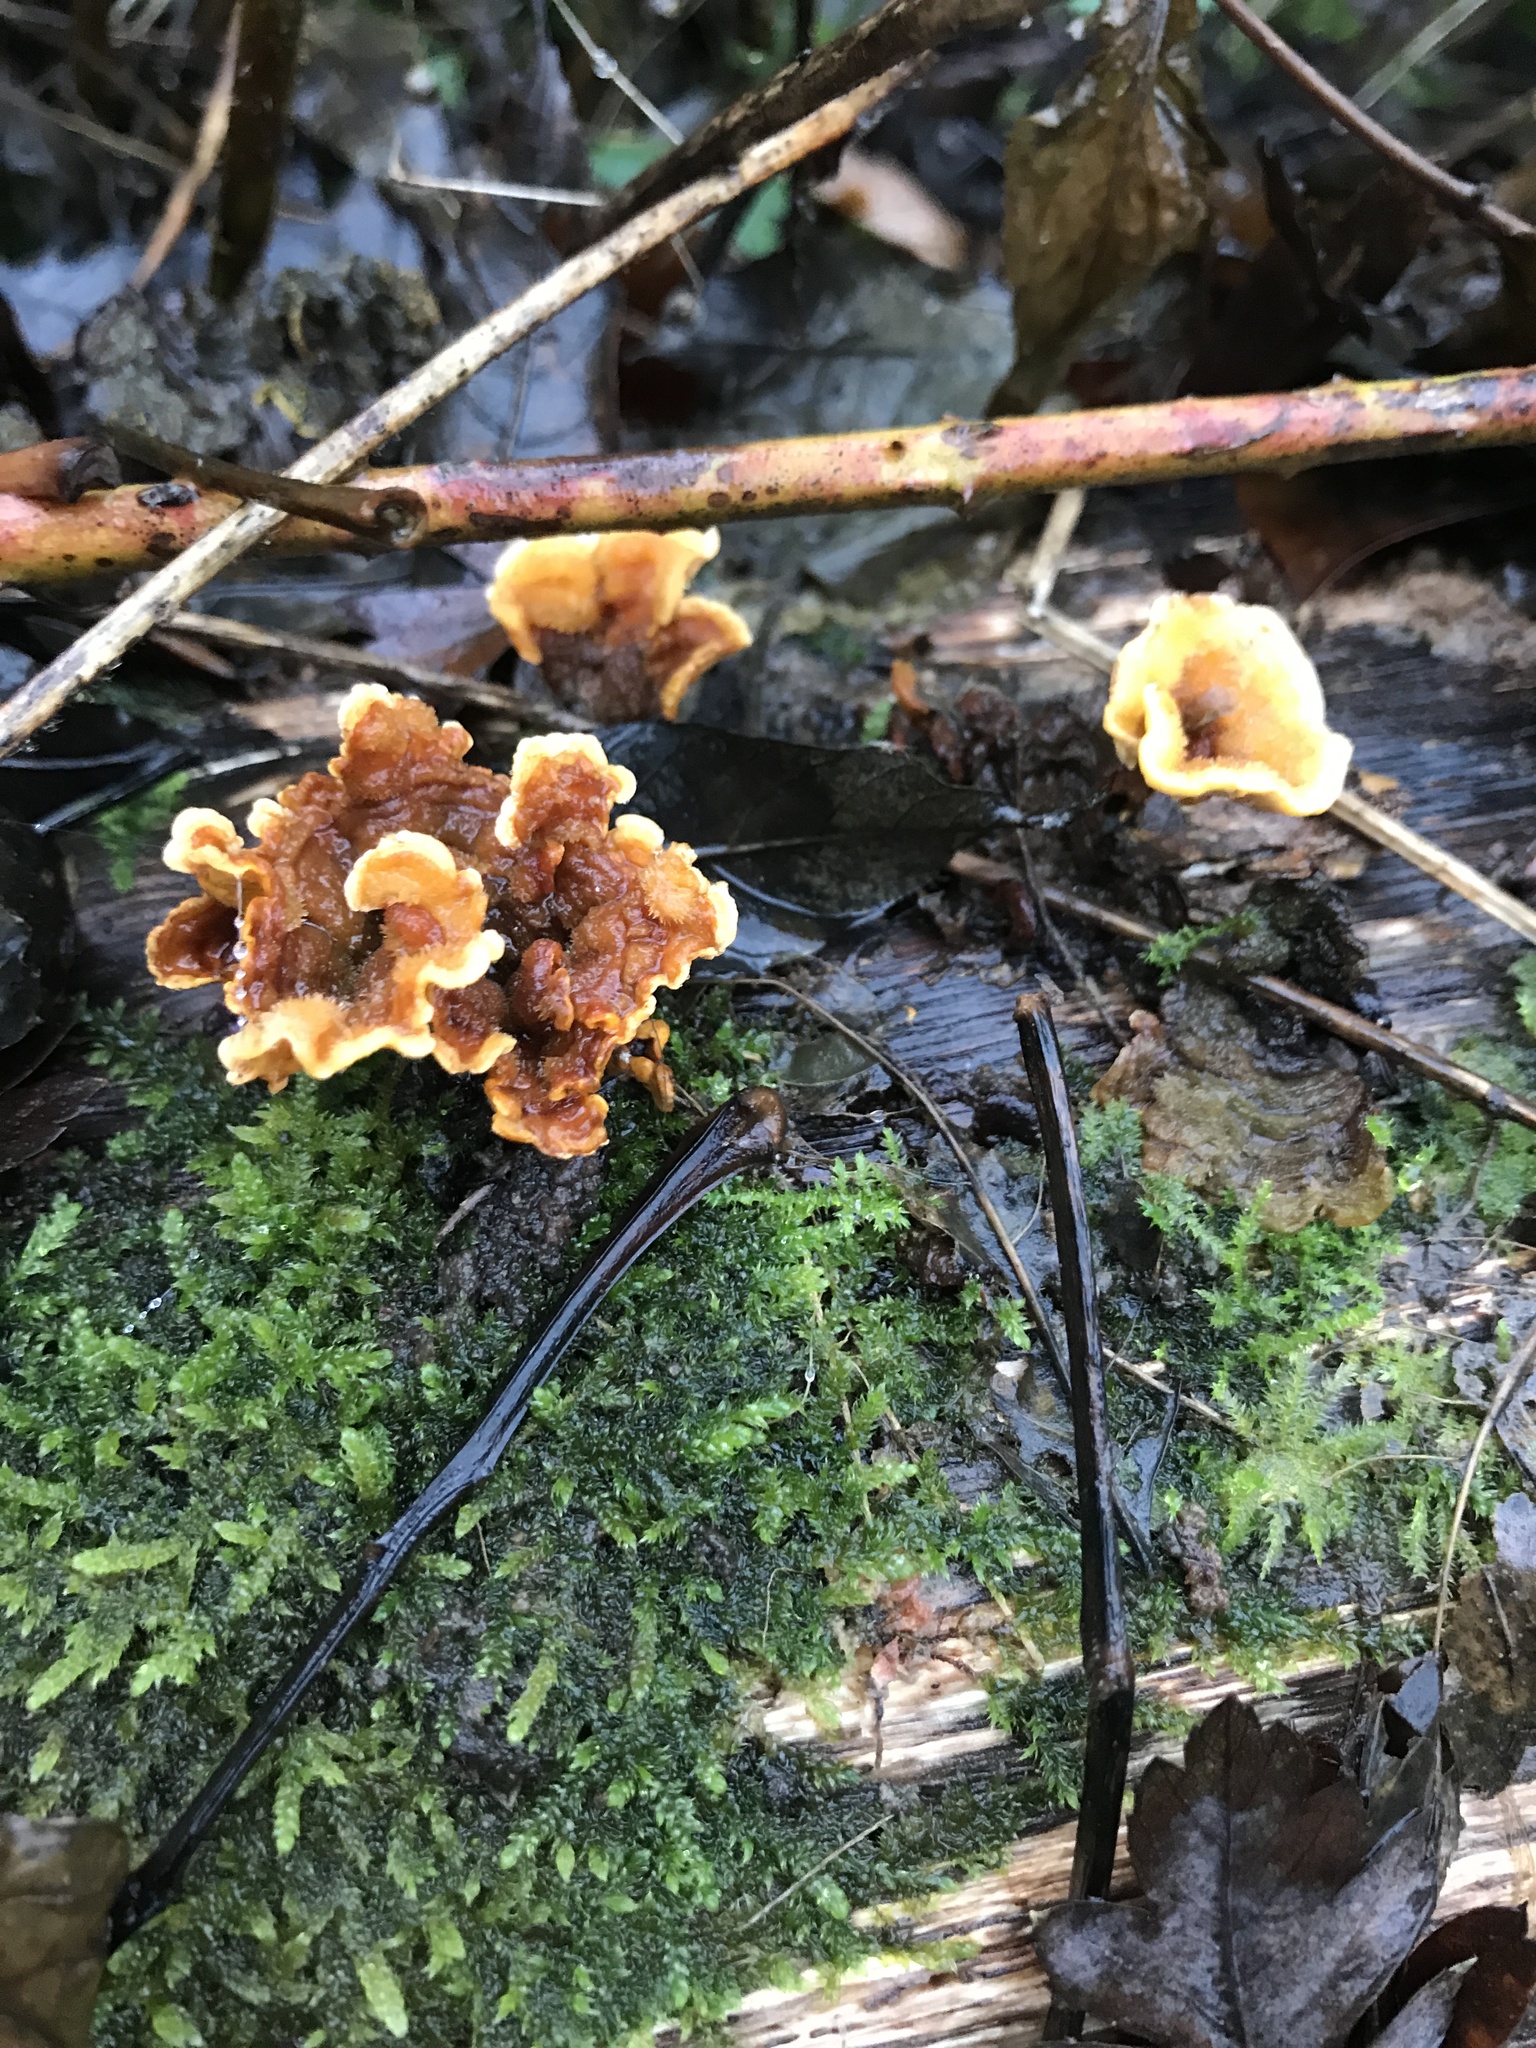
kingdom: Fungi
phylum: Basidiomycota
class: Agaricomycetes
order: Russulales
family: Stereaceae
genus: Stereum
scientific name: Stereum hirsutum
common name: Hairy curtain crust
